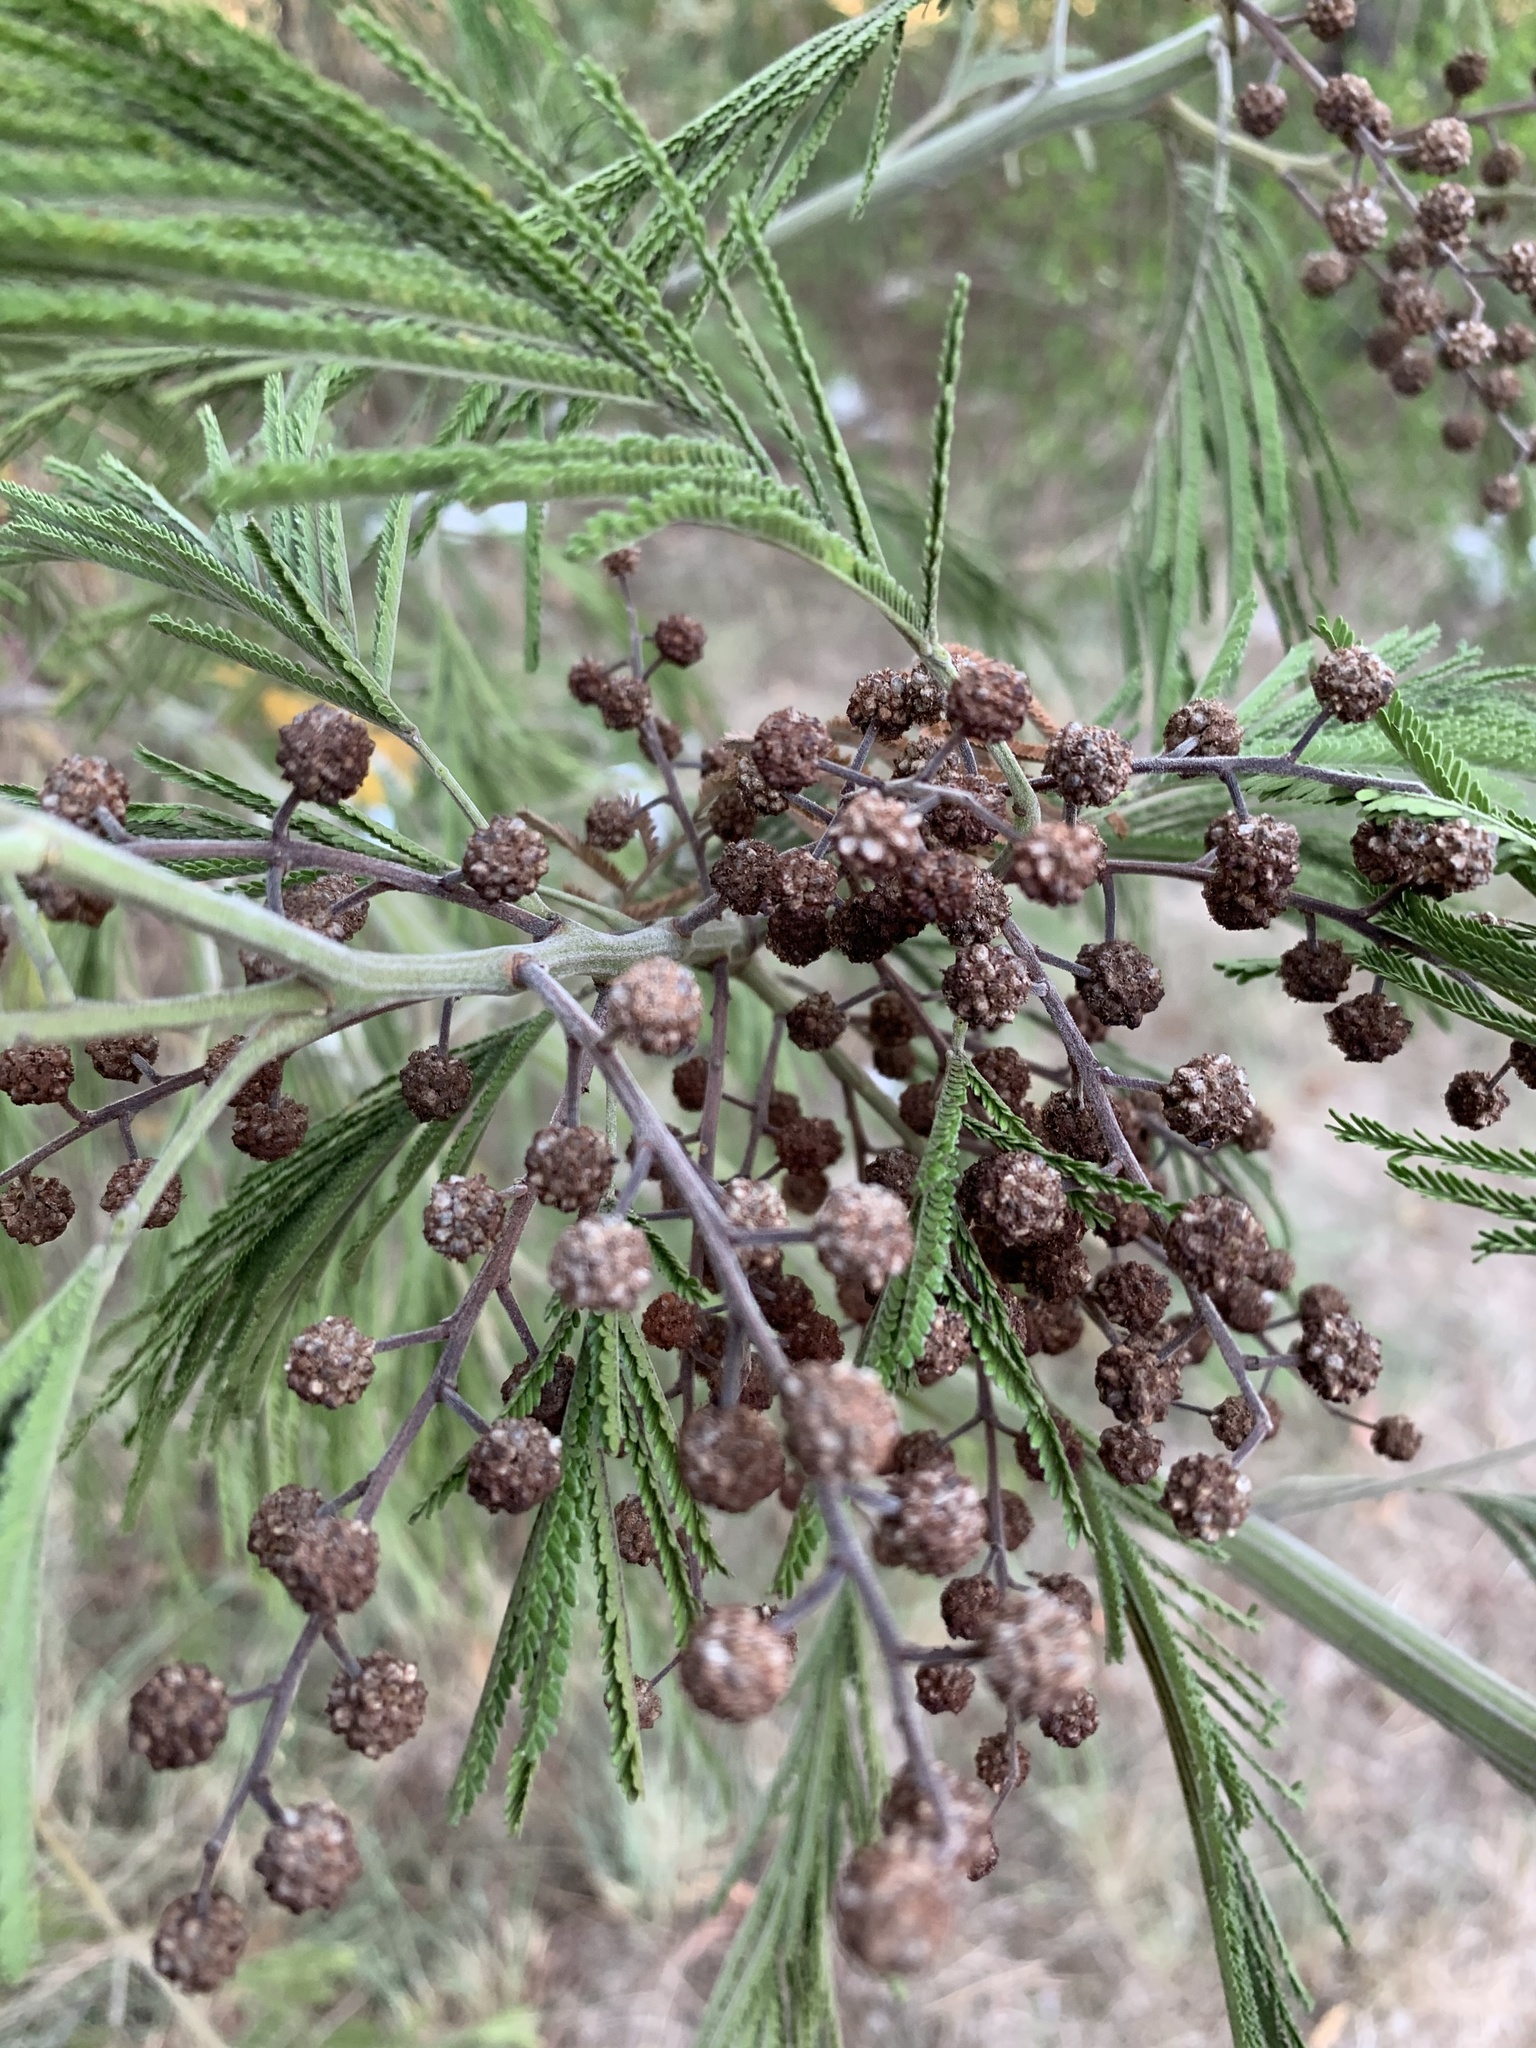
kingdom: Animalia
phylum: Arthropoda
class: Insecta
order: Diptera
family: Cecidomyiidae
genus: Dasineura
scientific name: Dasineura rubiformis
